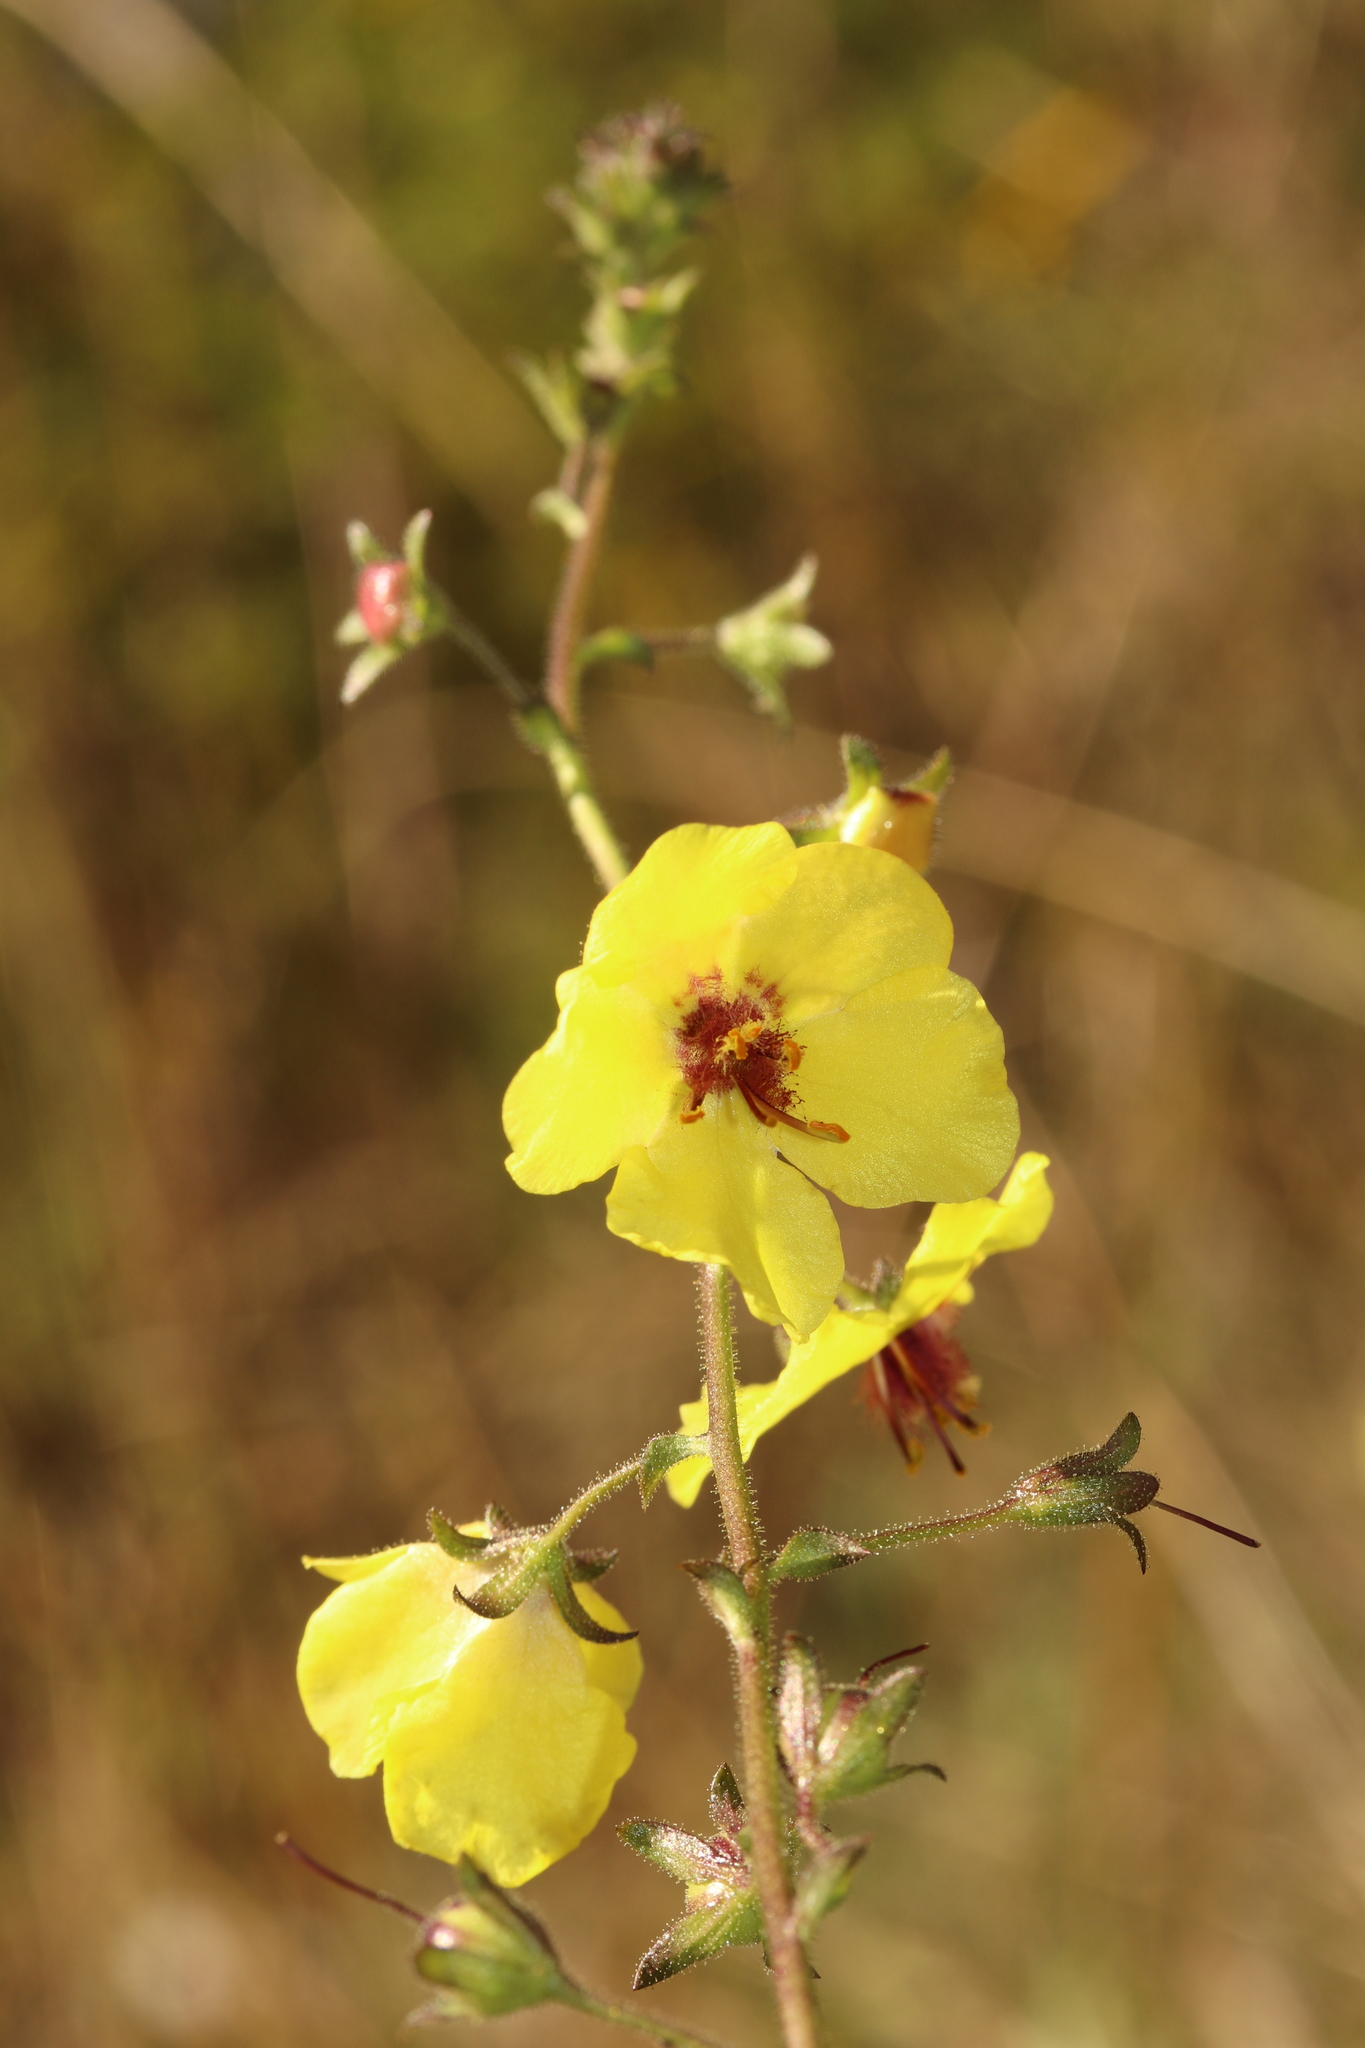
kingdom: Plantae
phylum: Tracheophyta
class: Magnoliopsida
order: Lamiales
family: Scrophulariaceae
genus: Verbascum
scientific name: Verbascum blattaria
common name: Moth mullein
